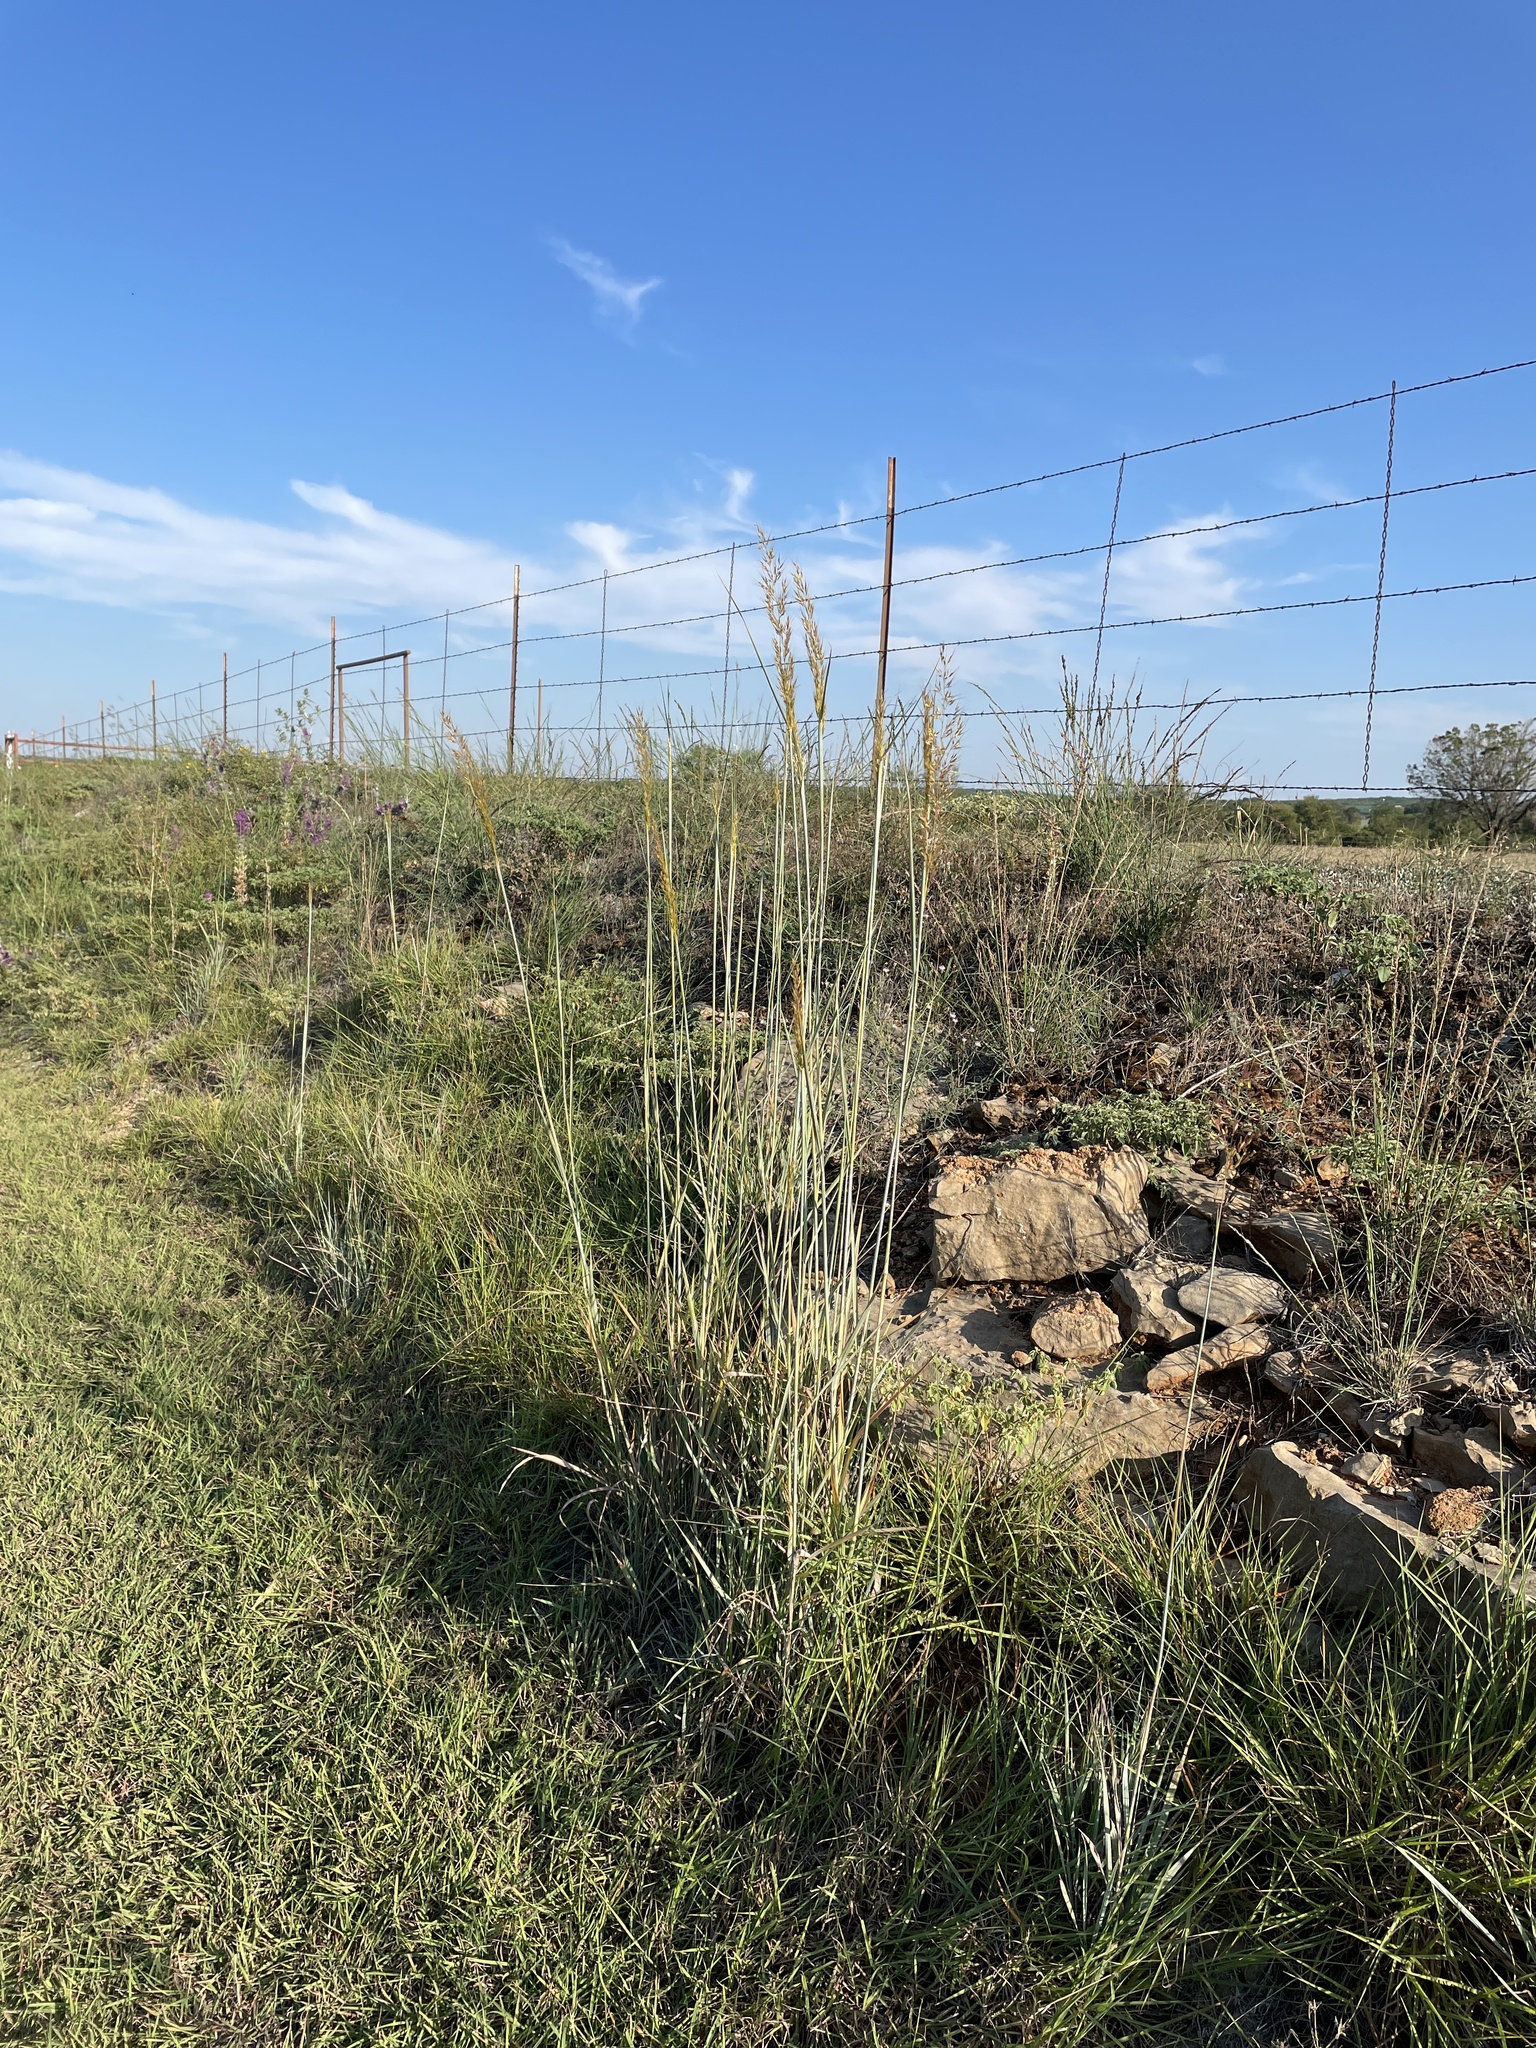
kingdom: Plantae
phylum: Tracheophyta
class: Liliopsida
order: Poales
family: Poaceae
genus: Sorghastrum
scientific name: Sorghastrum nutans
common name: Indian grass
